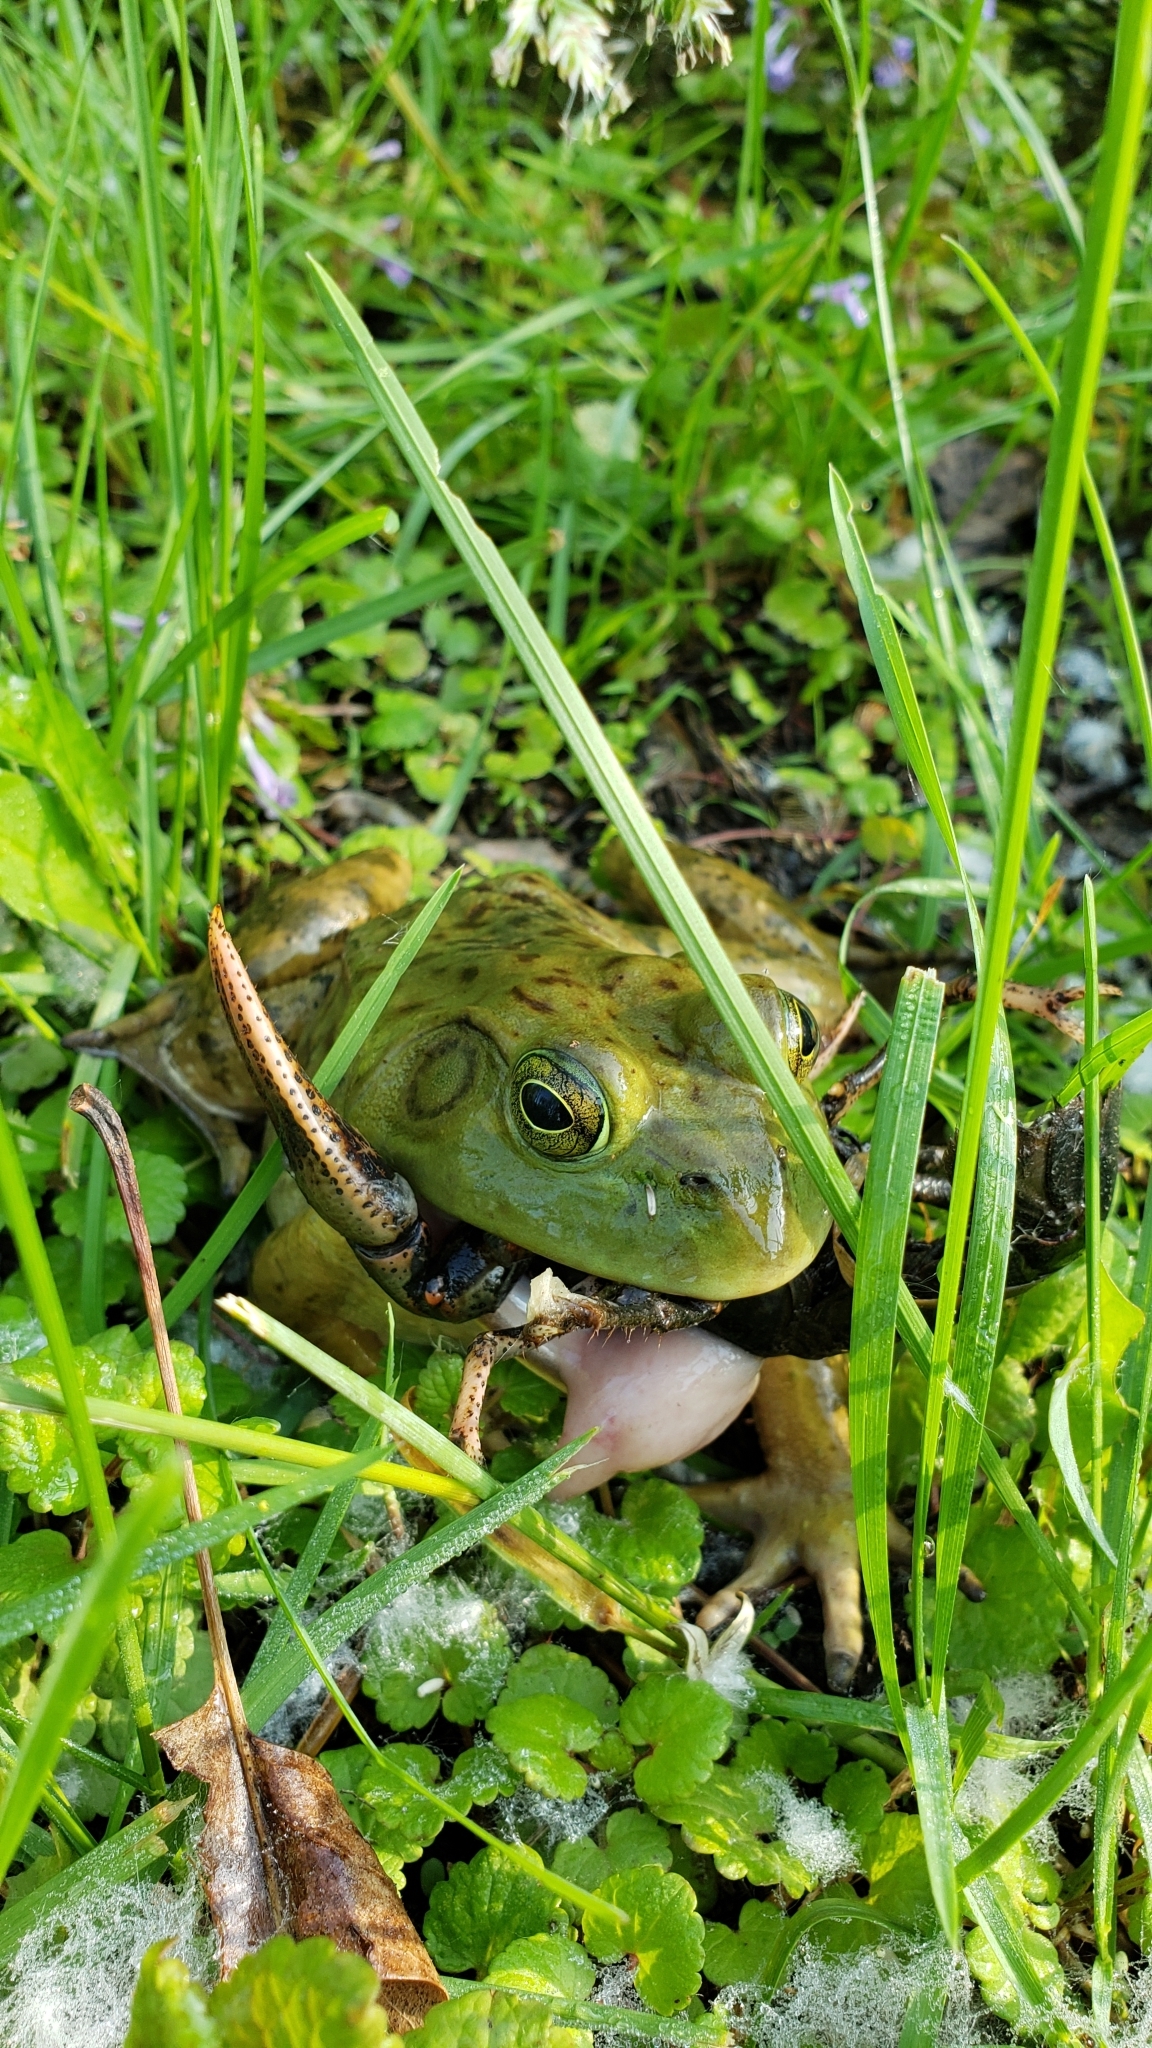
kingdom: Animalia
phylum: Chordata
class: Amphibia
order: Anura
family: Ranidae
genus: Lithobates
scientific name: Lithobates catesbeianus
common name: American bullfrog
